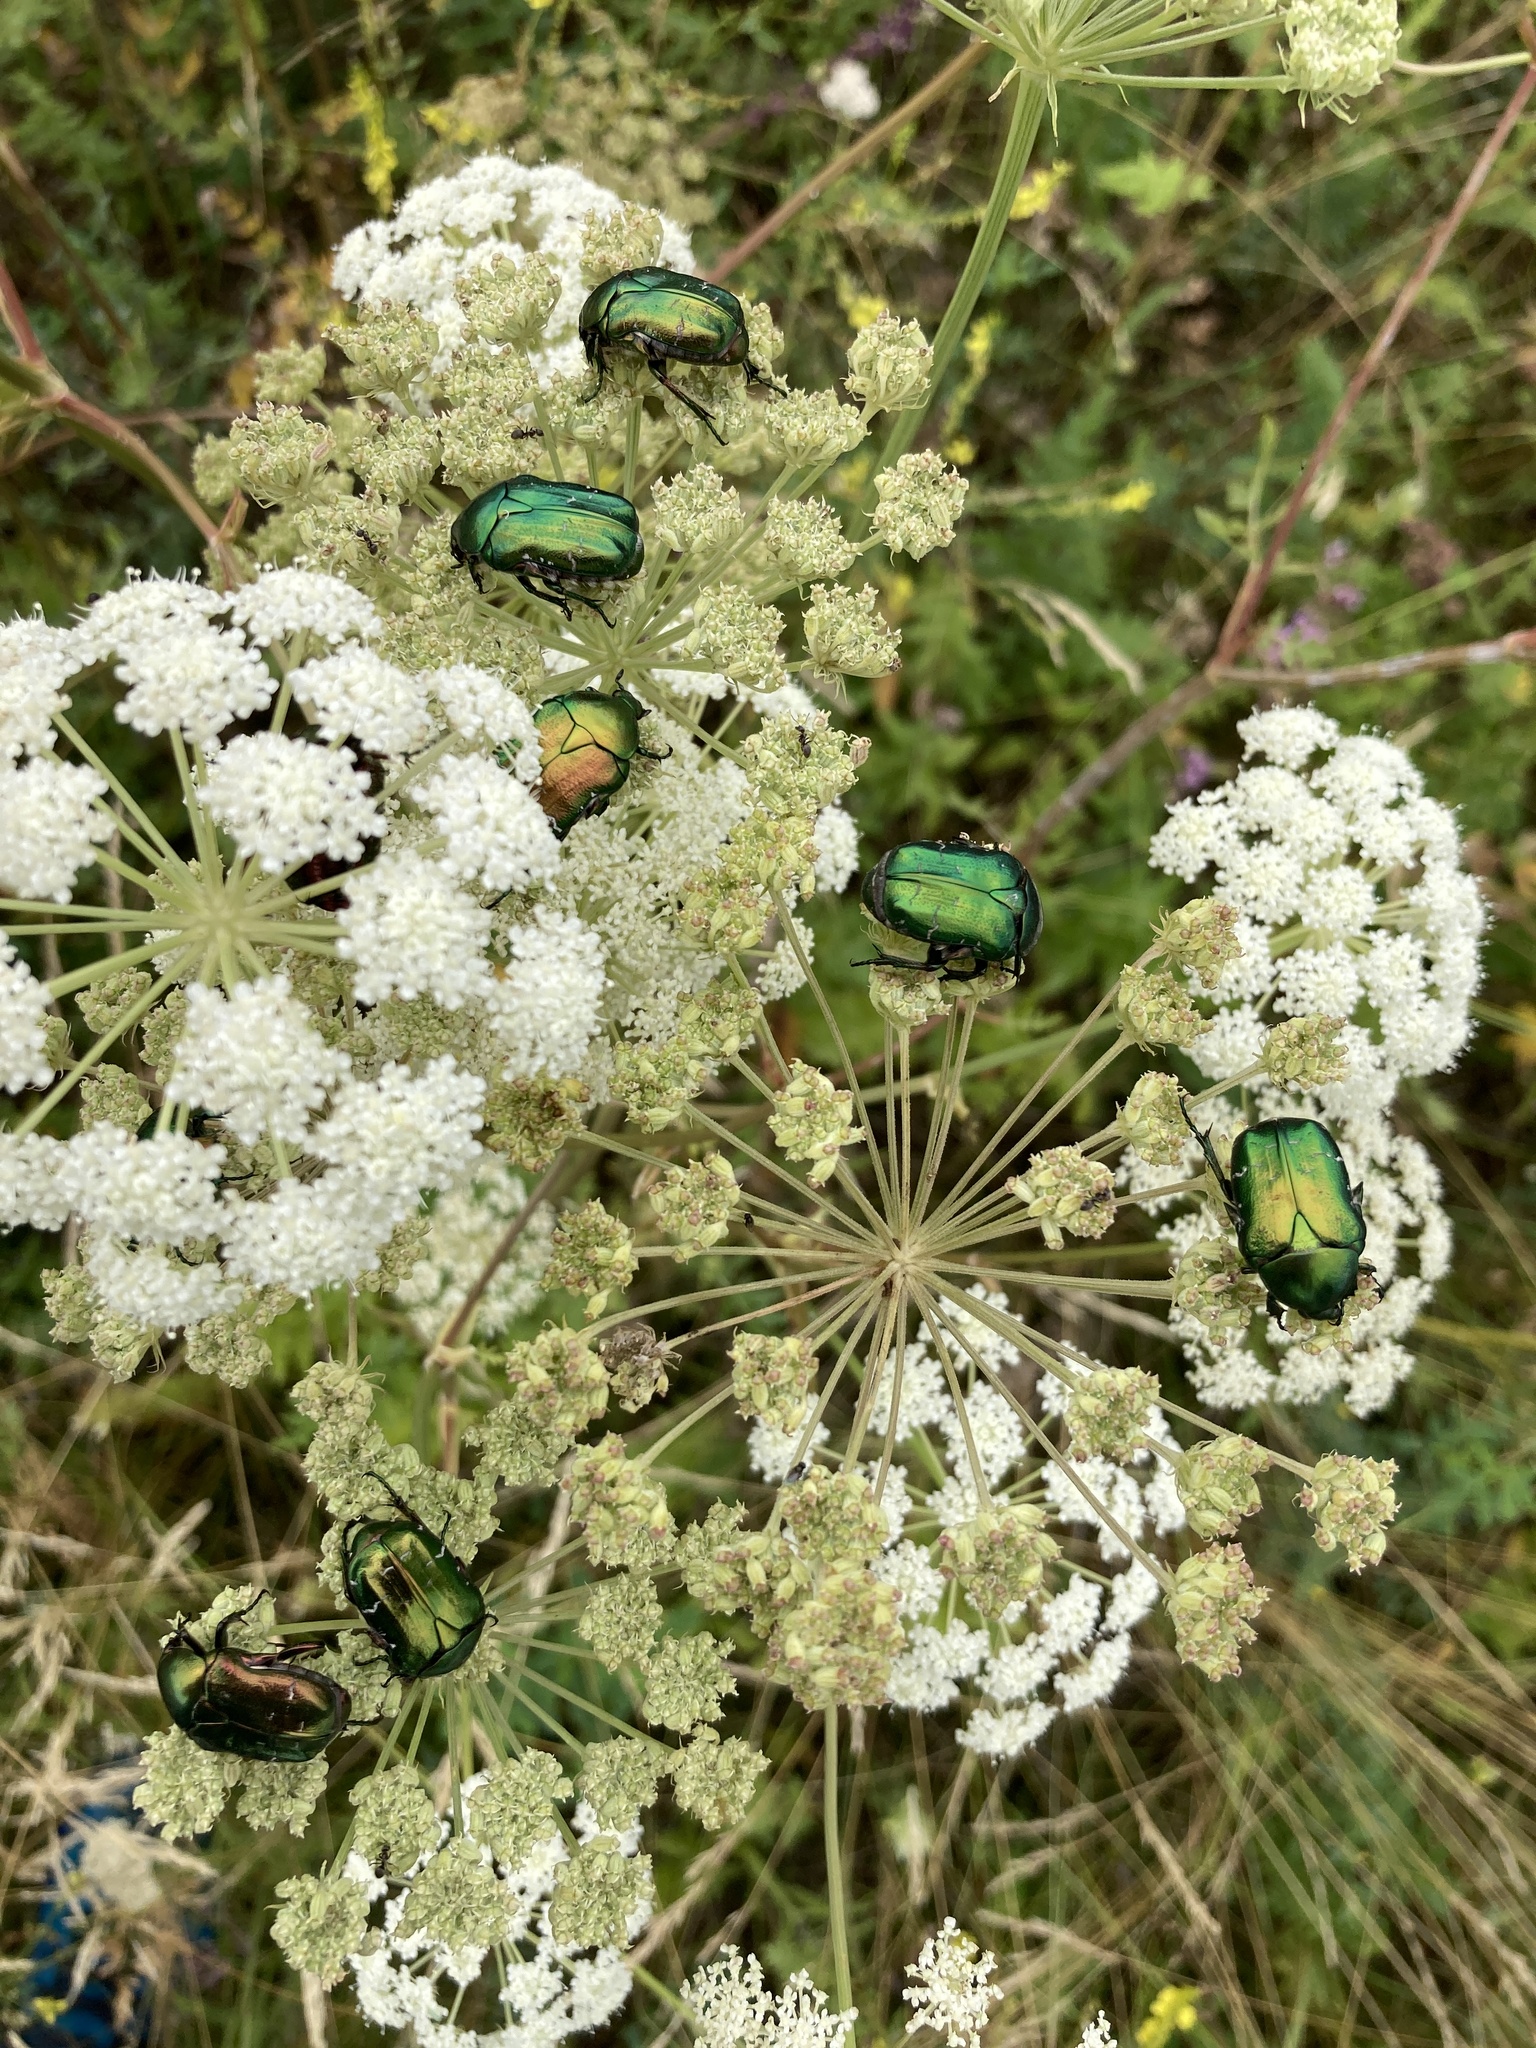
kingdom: Animalia
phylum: Arthropoda
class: Insecta
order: Coleoptera
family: Scarabaeidae
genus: Cetonia
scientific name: Cetonia aurata
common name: Rose chafer
